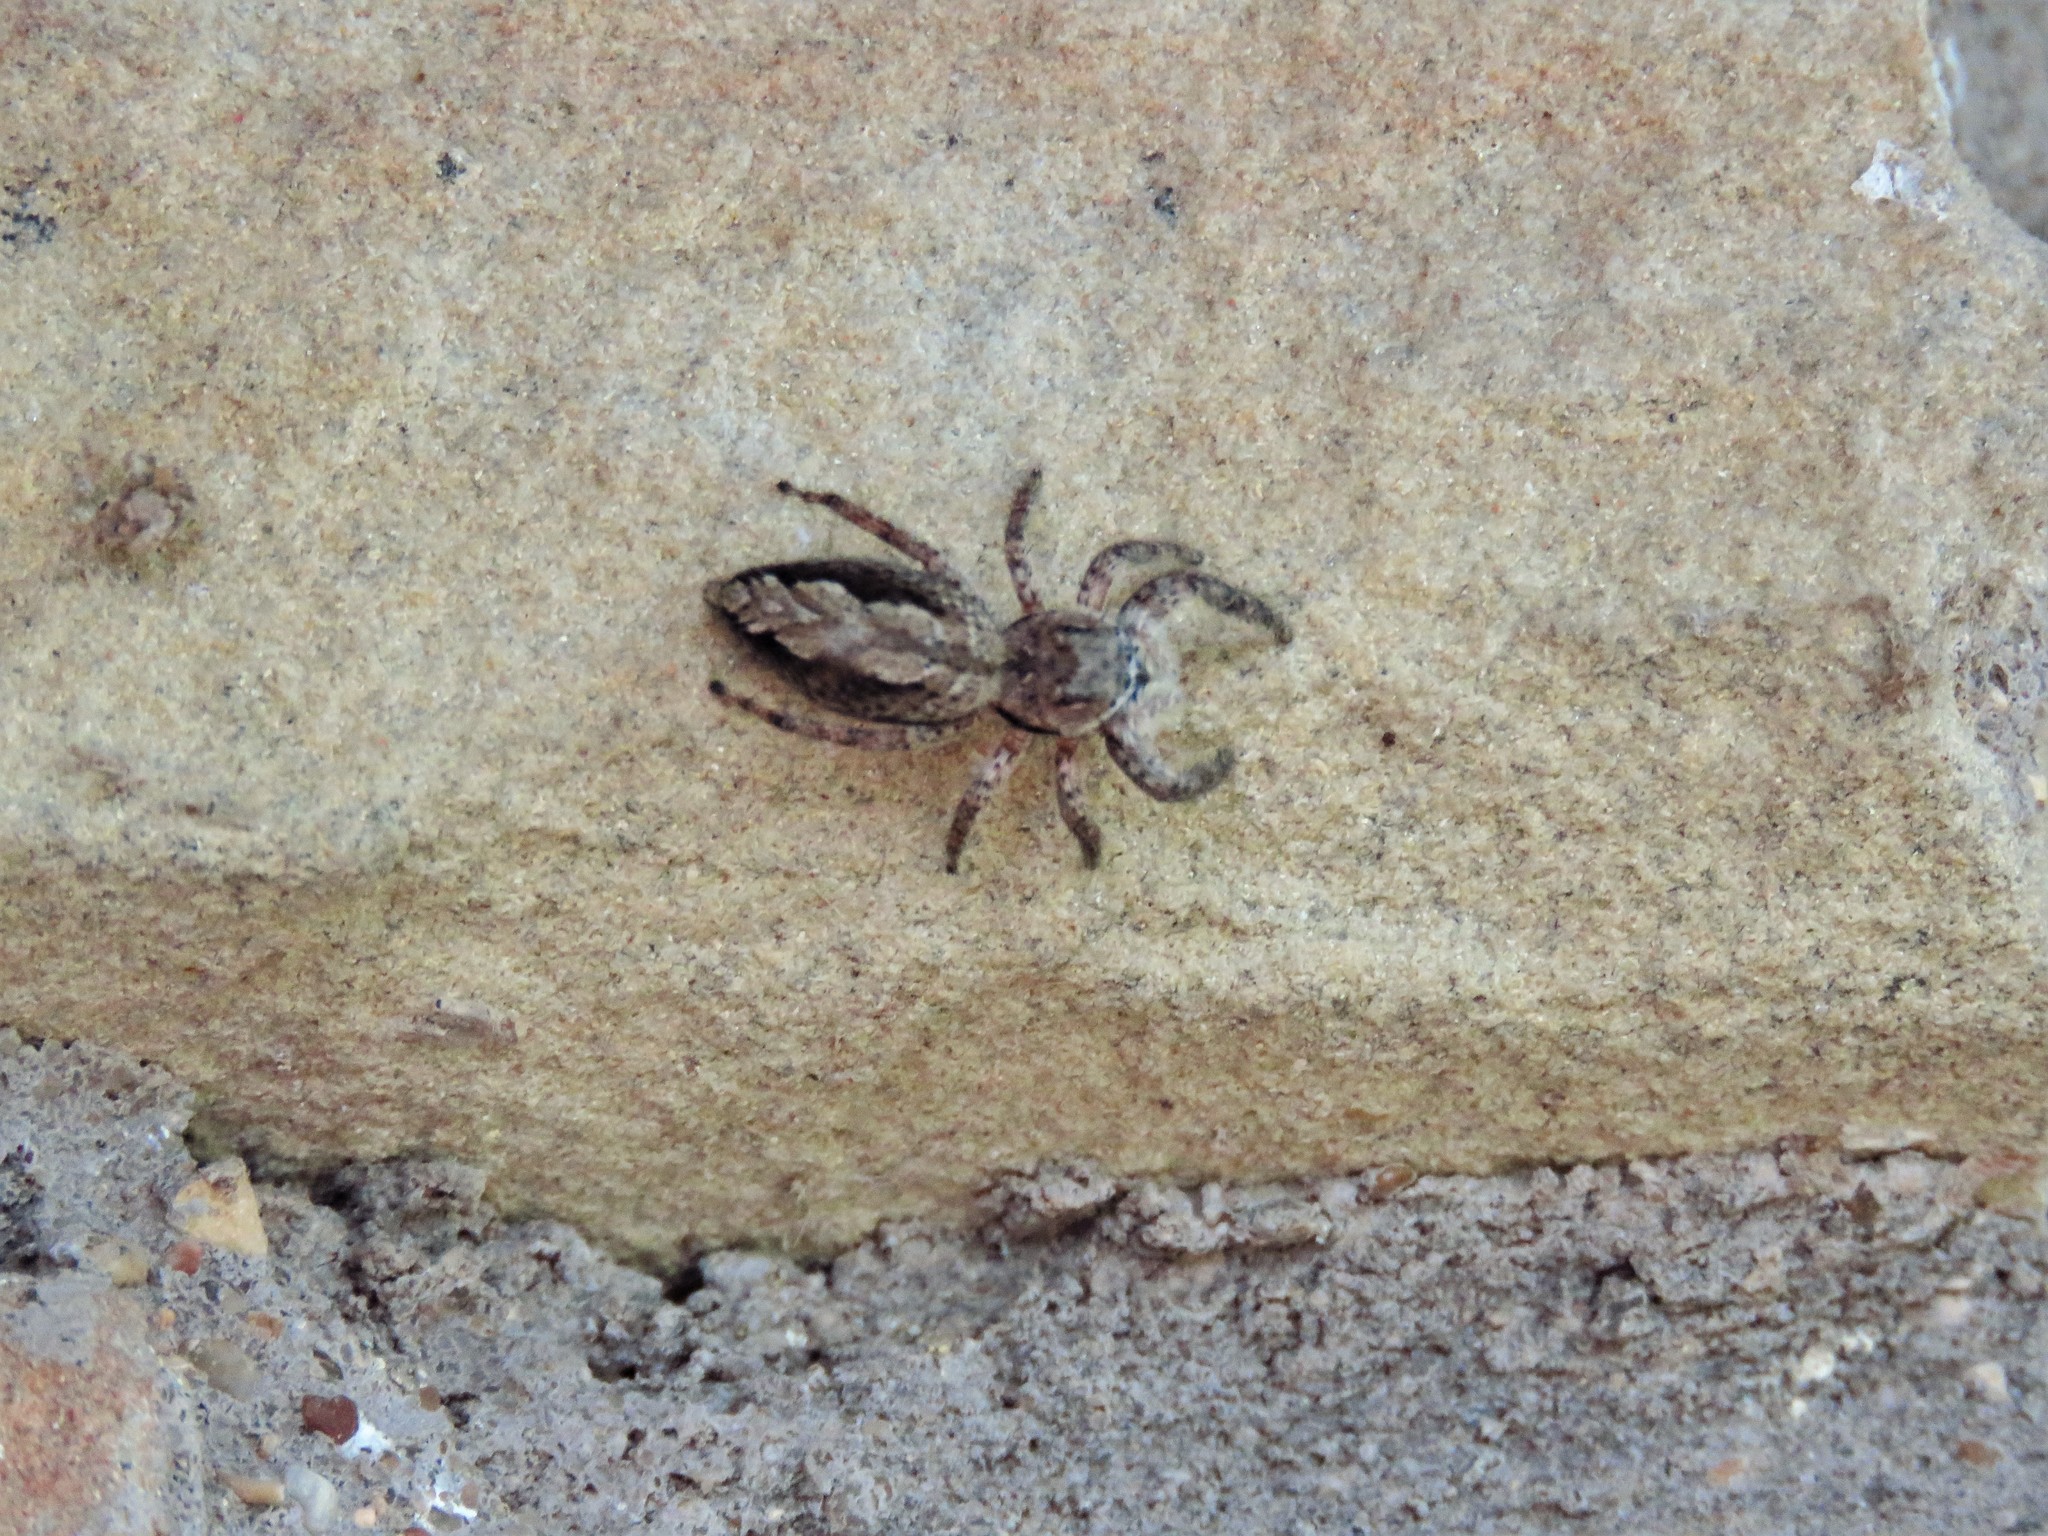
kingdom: Animalia
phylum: Arthropoda
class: Arachnida
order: Araneae
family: Salticidae
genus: Platycryptus
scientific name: Platycryptus undatus
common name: Tan jumping spider
